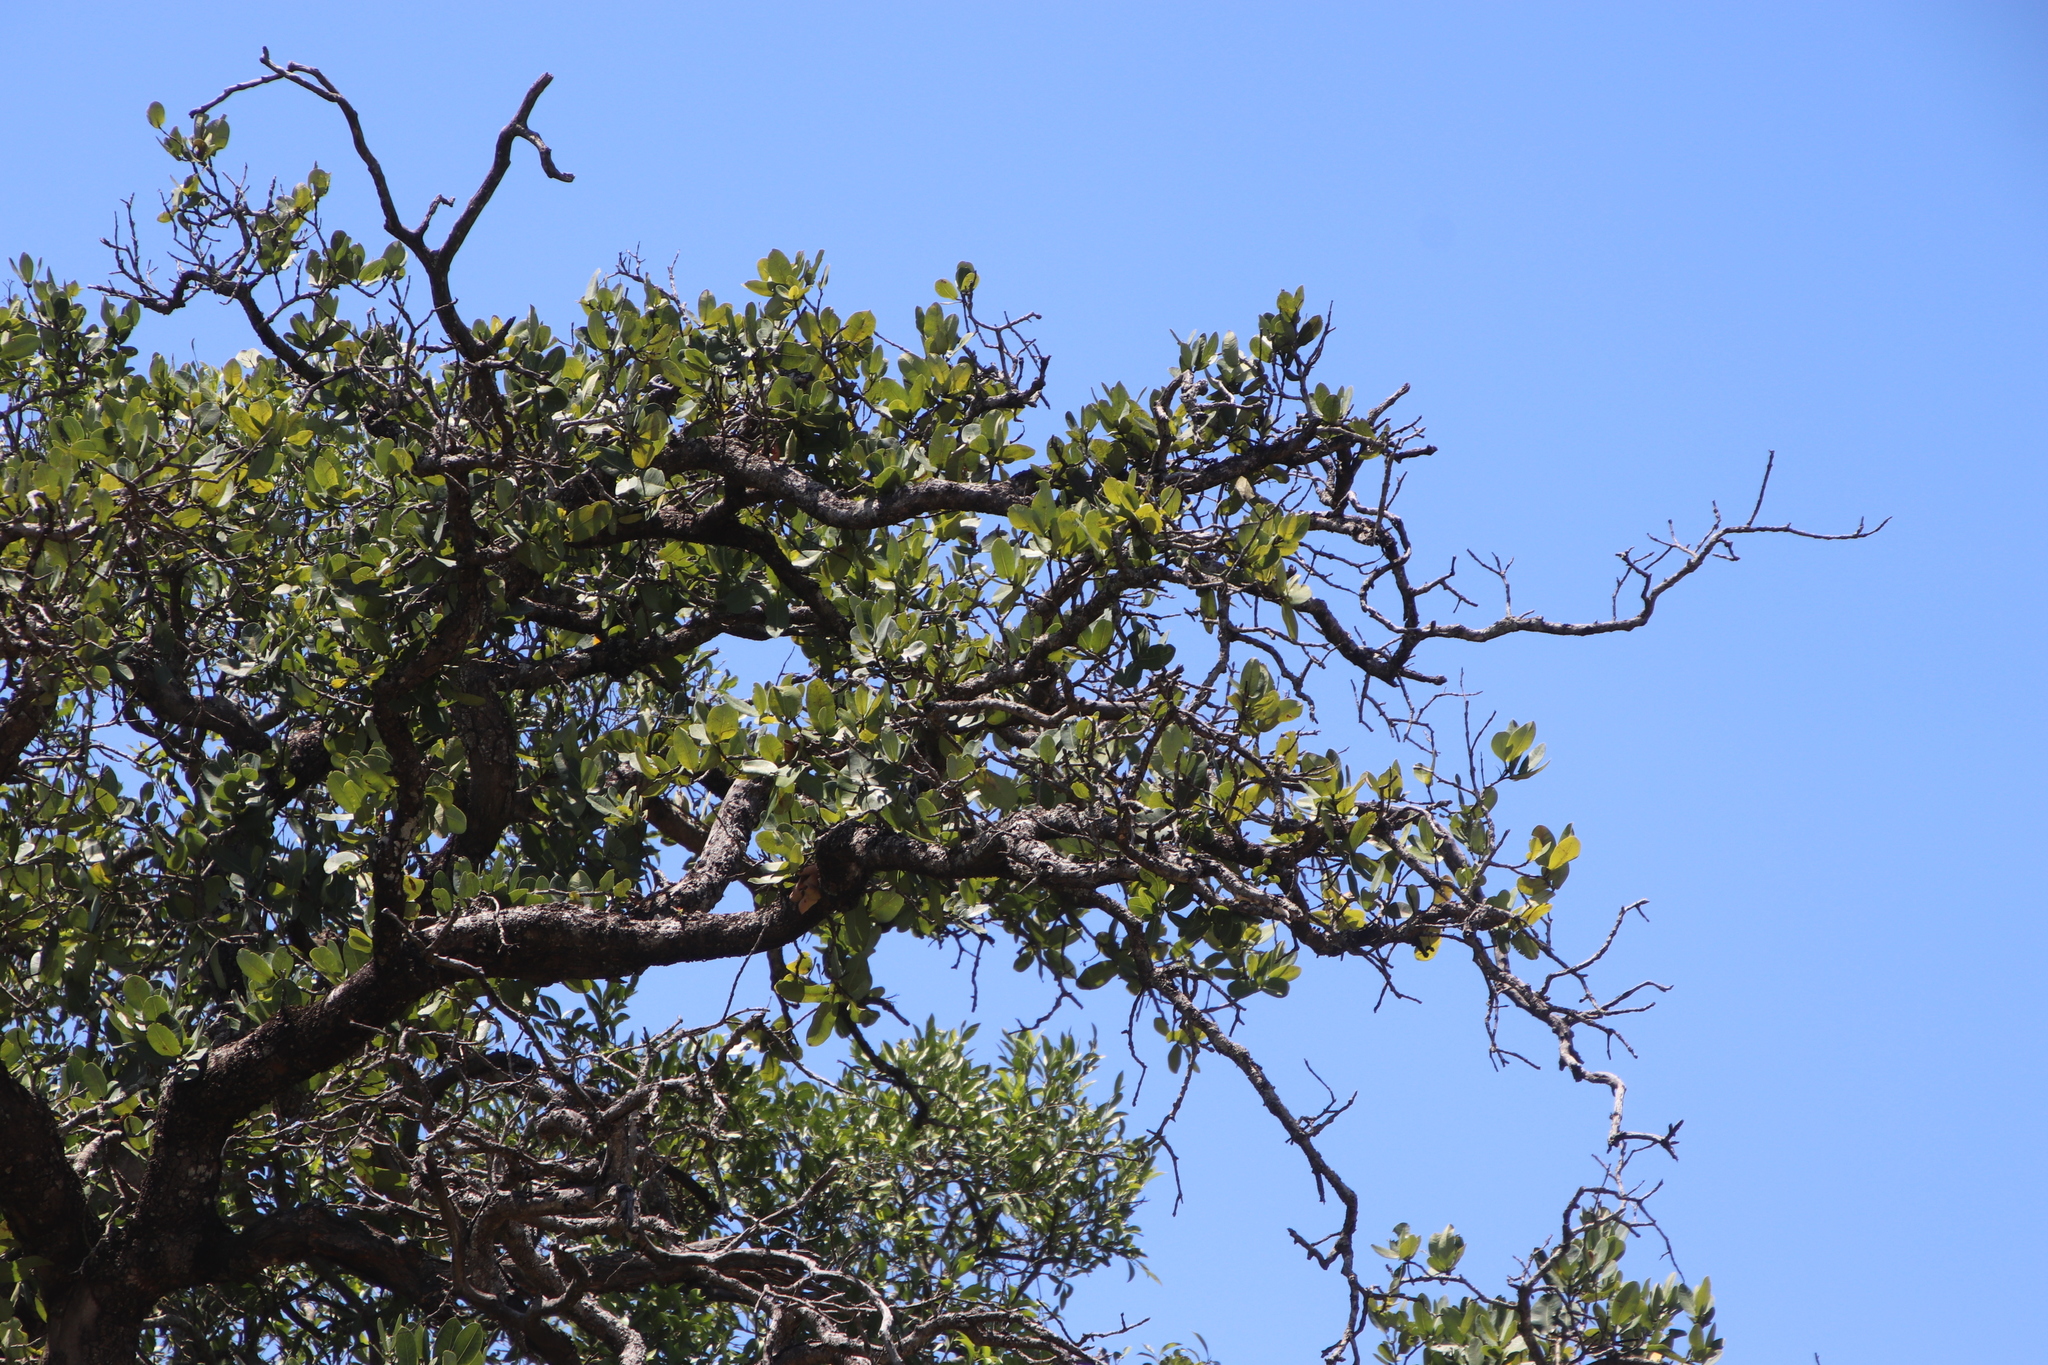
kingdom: Plantae
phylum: Tracheophyta
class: Magnoliopsida
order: Myrtales
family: Myrtaceae
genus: Syzygium
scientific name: Syzygium cordatum
